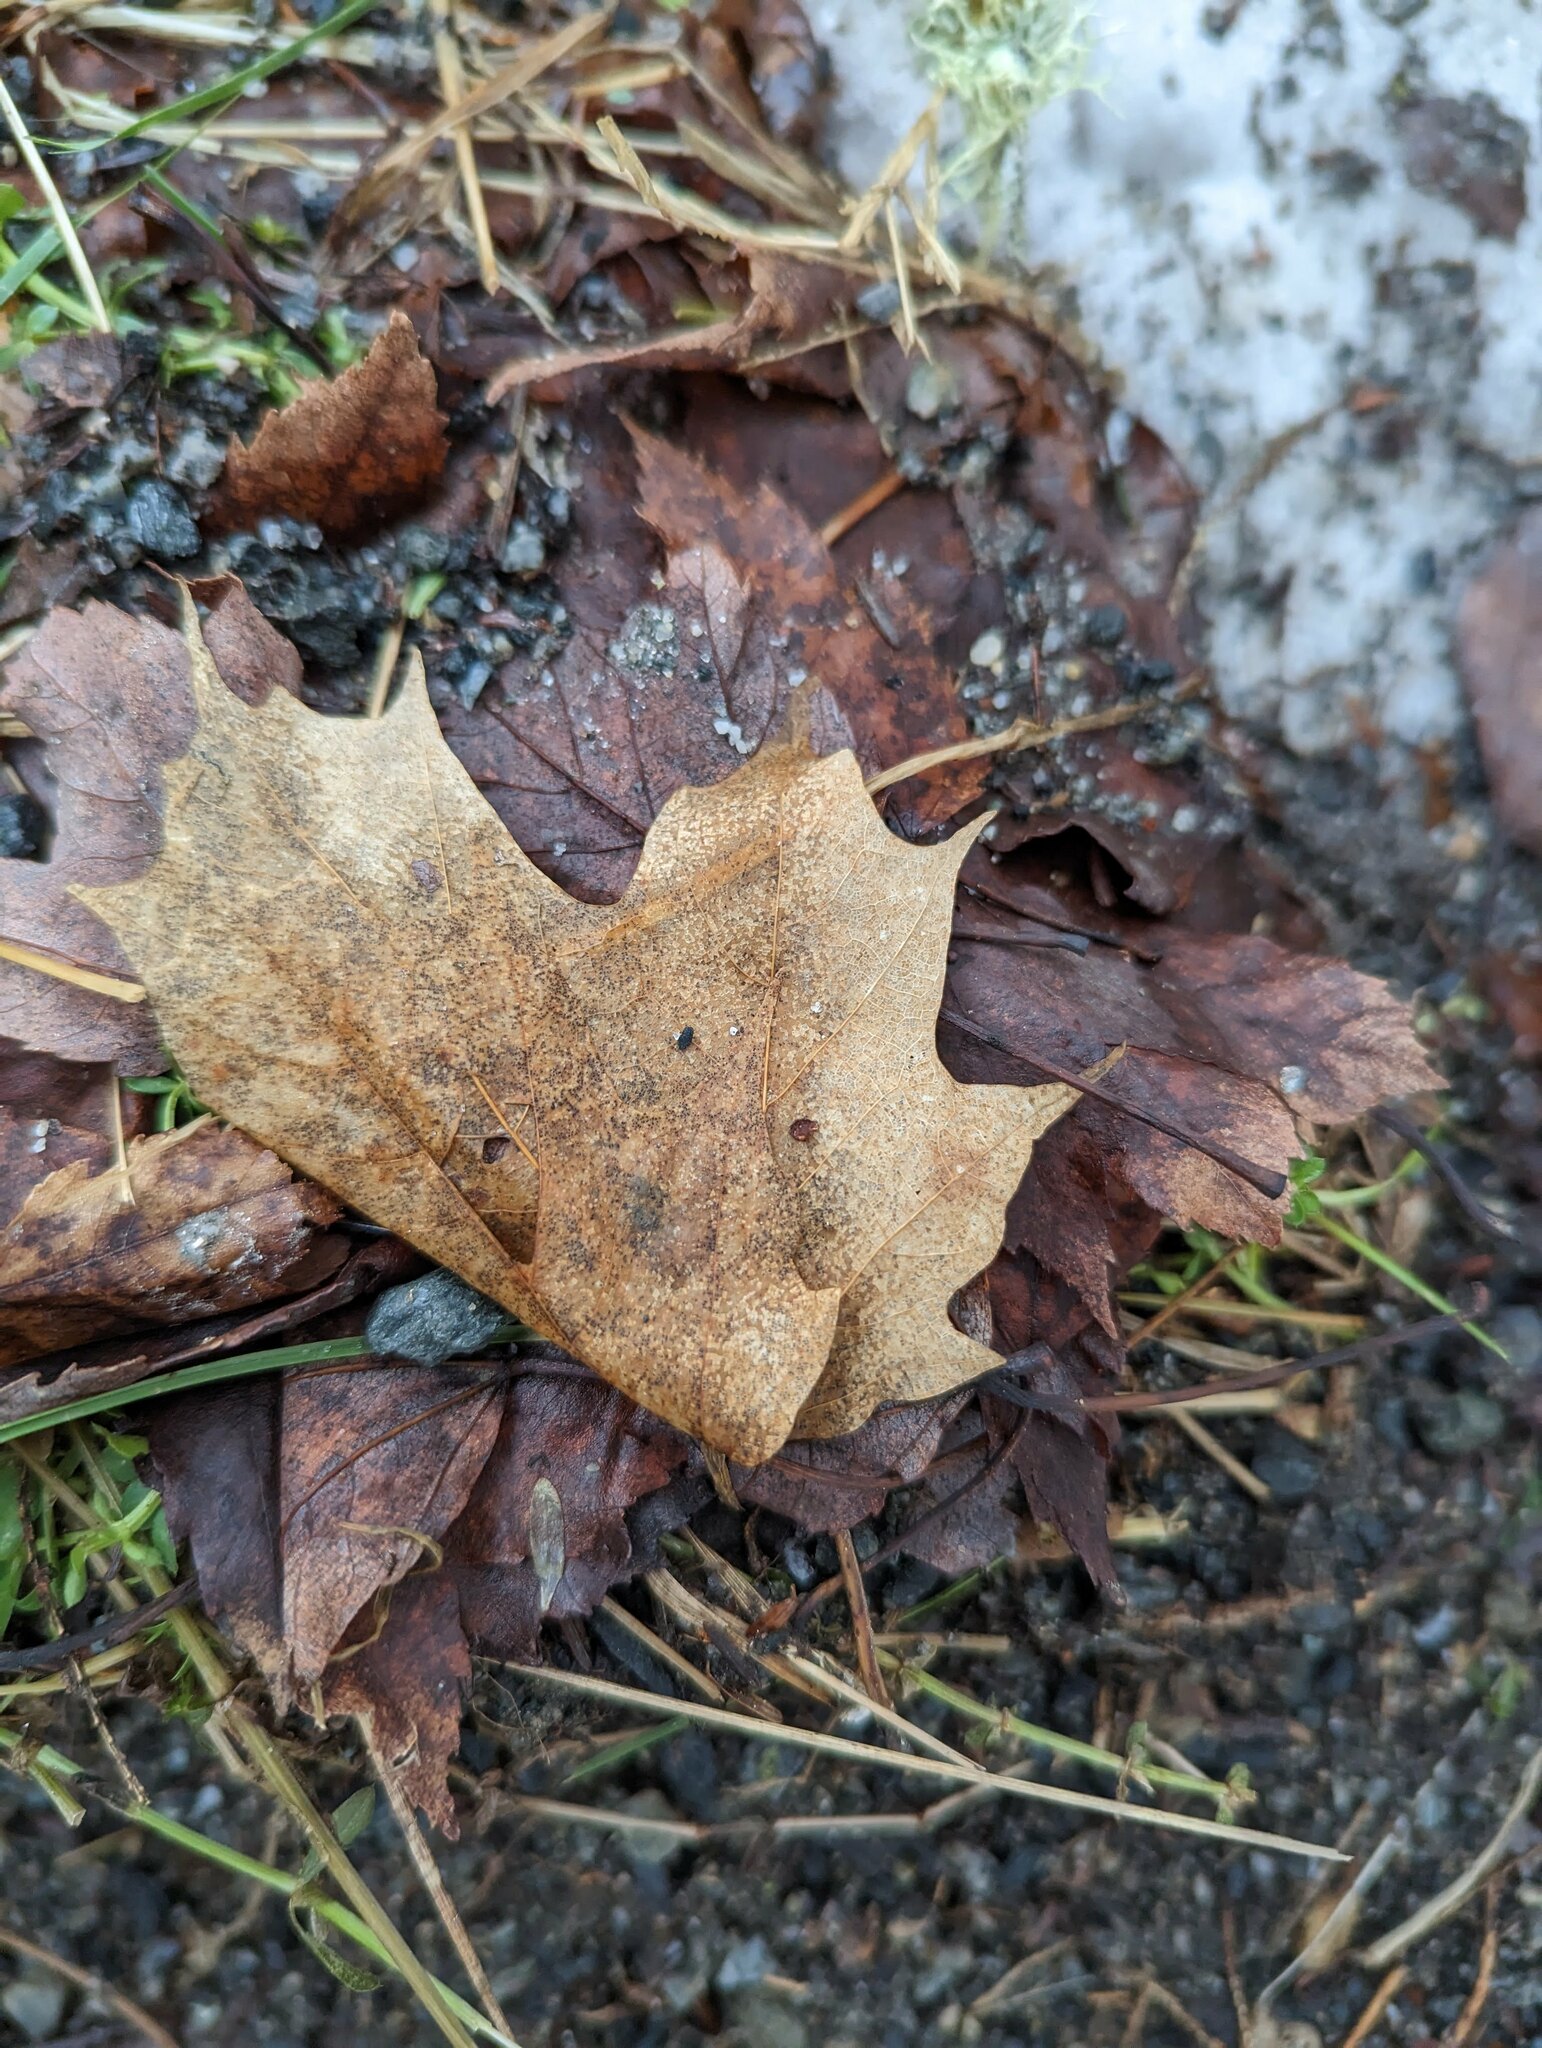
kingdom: Plantae
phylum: Tracheophyta
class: Magnoliopsida
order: Sapindales
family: Sapindaceae
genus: Acer
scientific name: Acer saccharum
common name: Sugar maple
